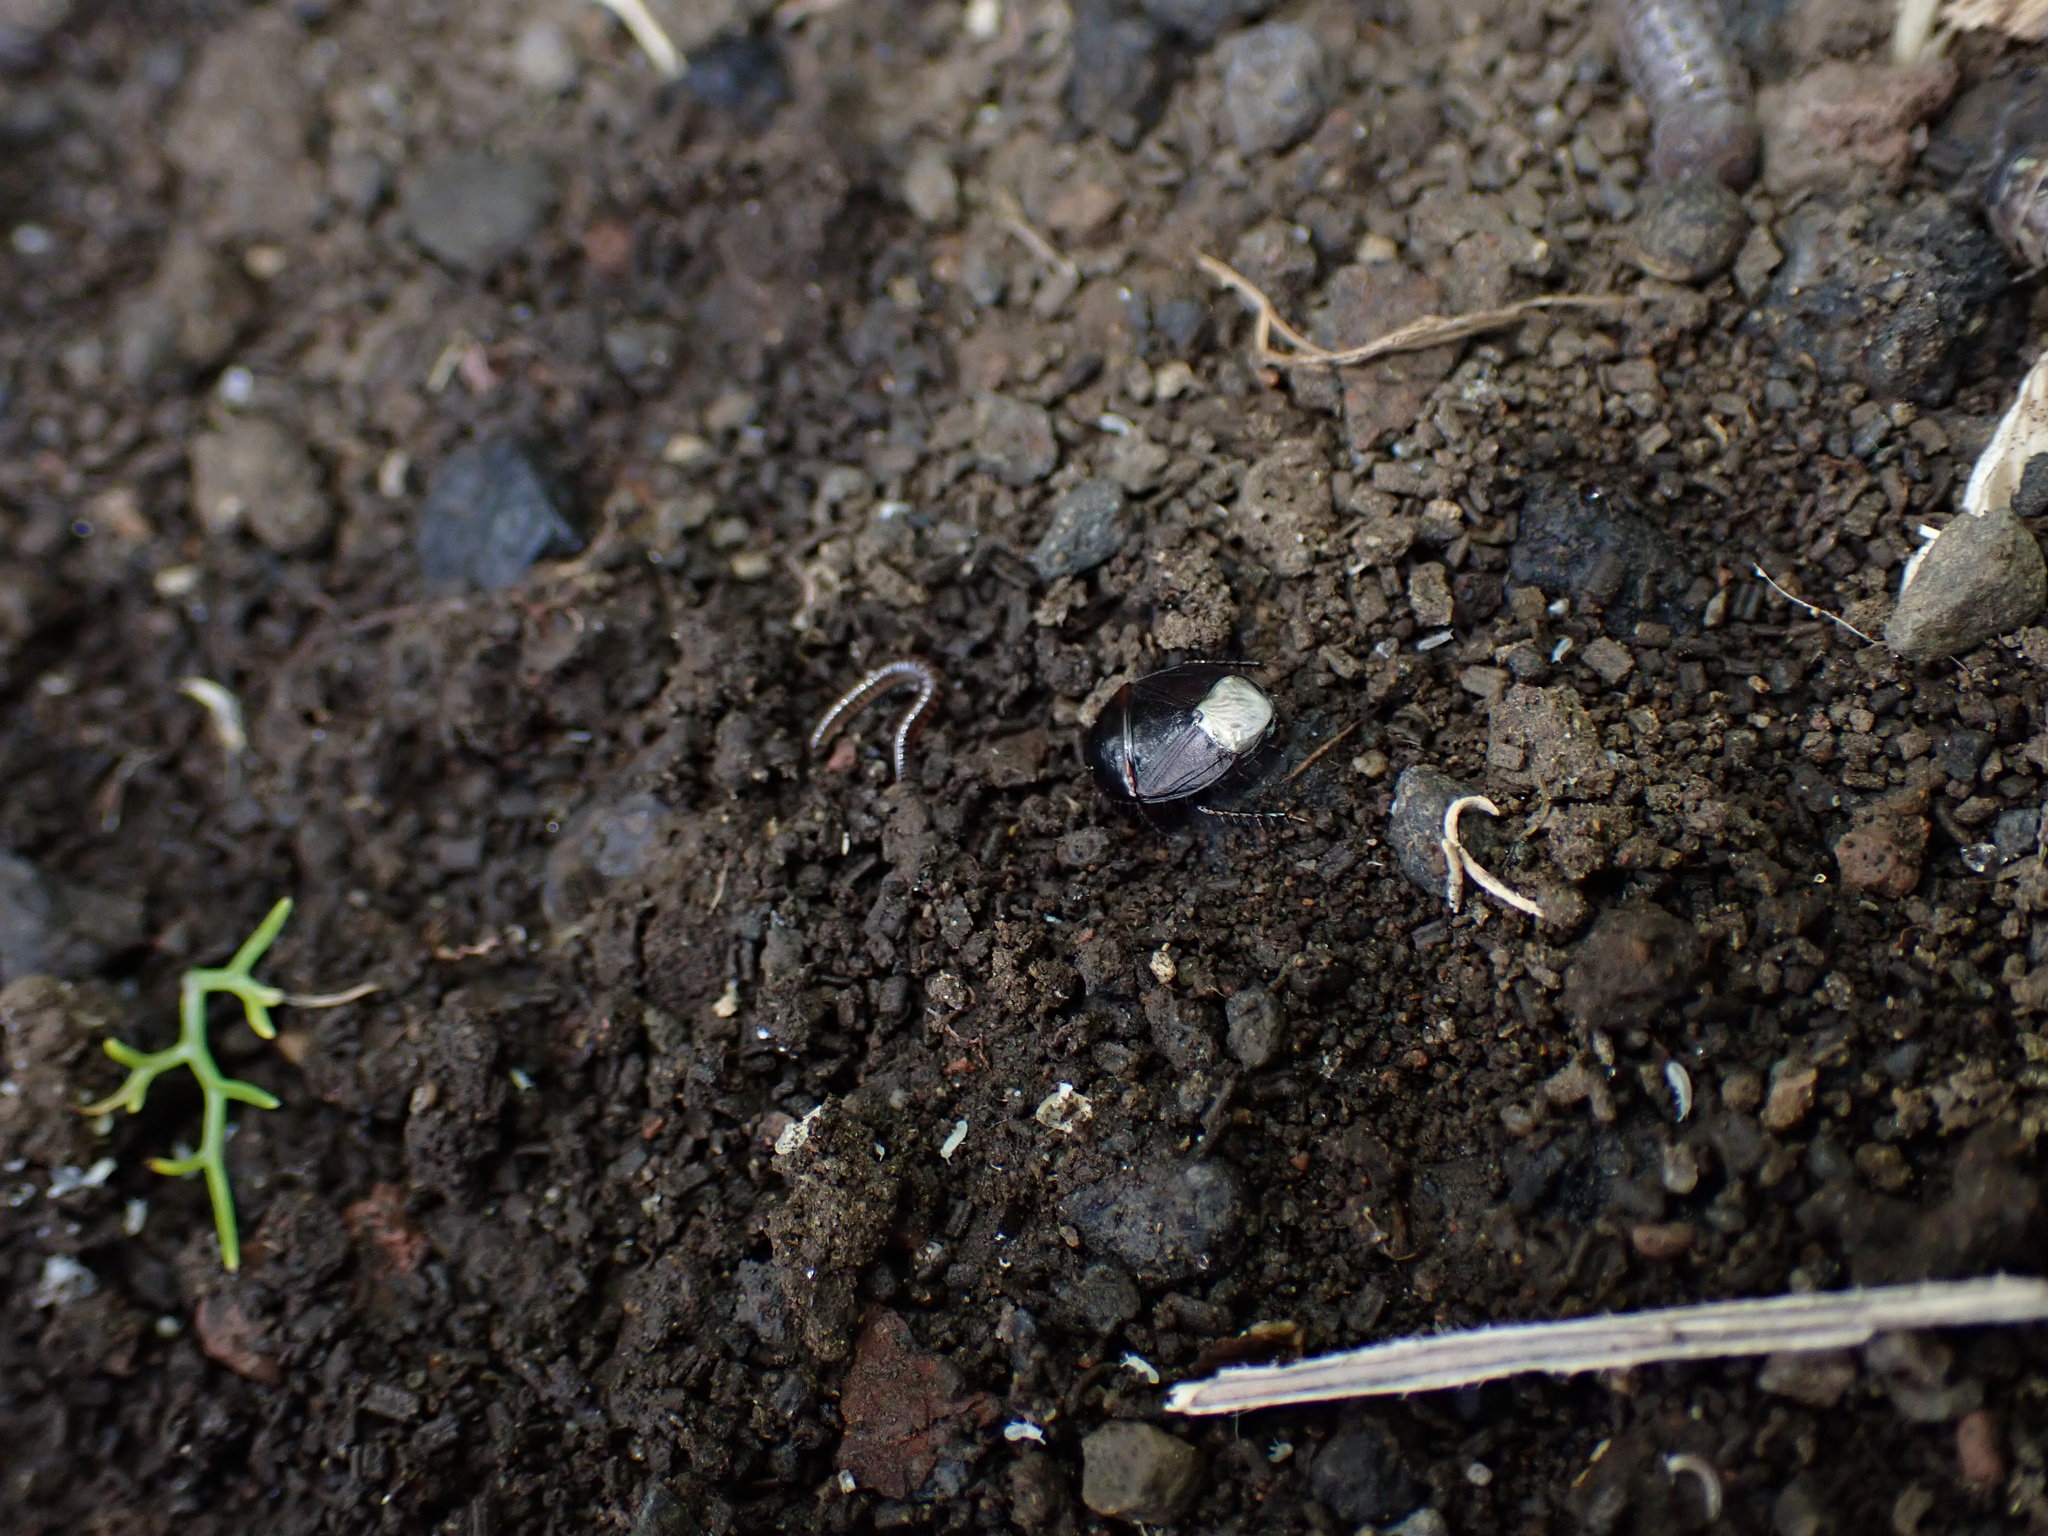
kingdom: Animalia
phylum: Arthropoda
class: Insecta
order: Hemiptera
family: Cydnidae
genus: Macroscytus
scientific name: Macroscytus australis
